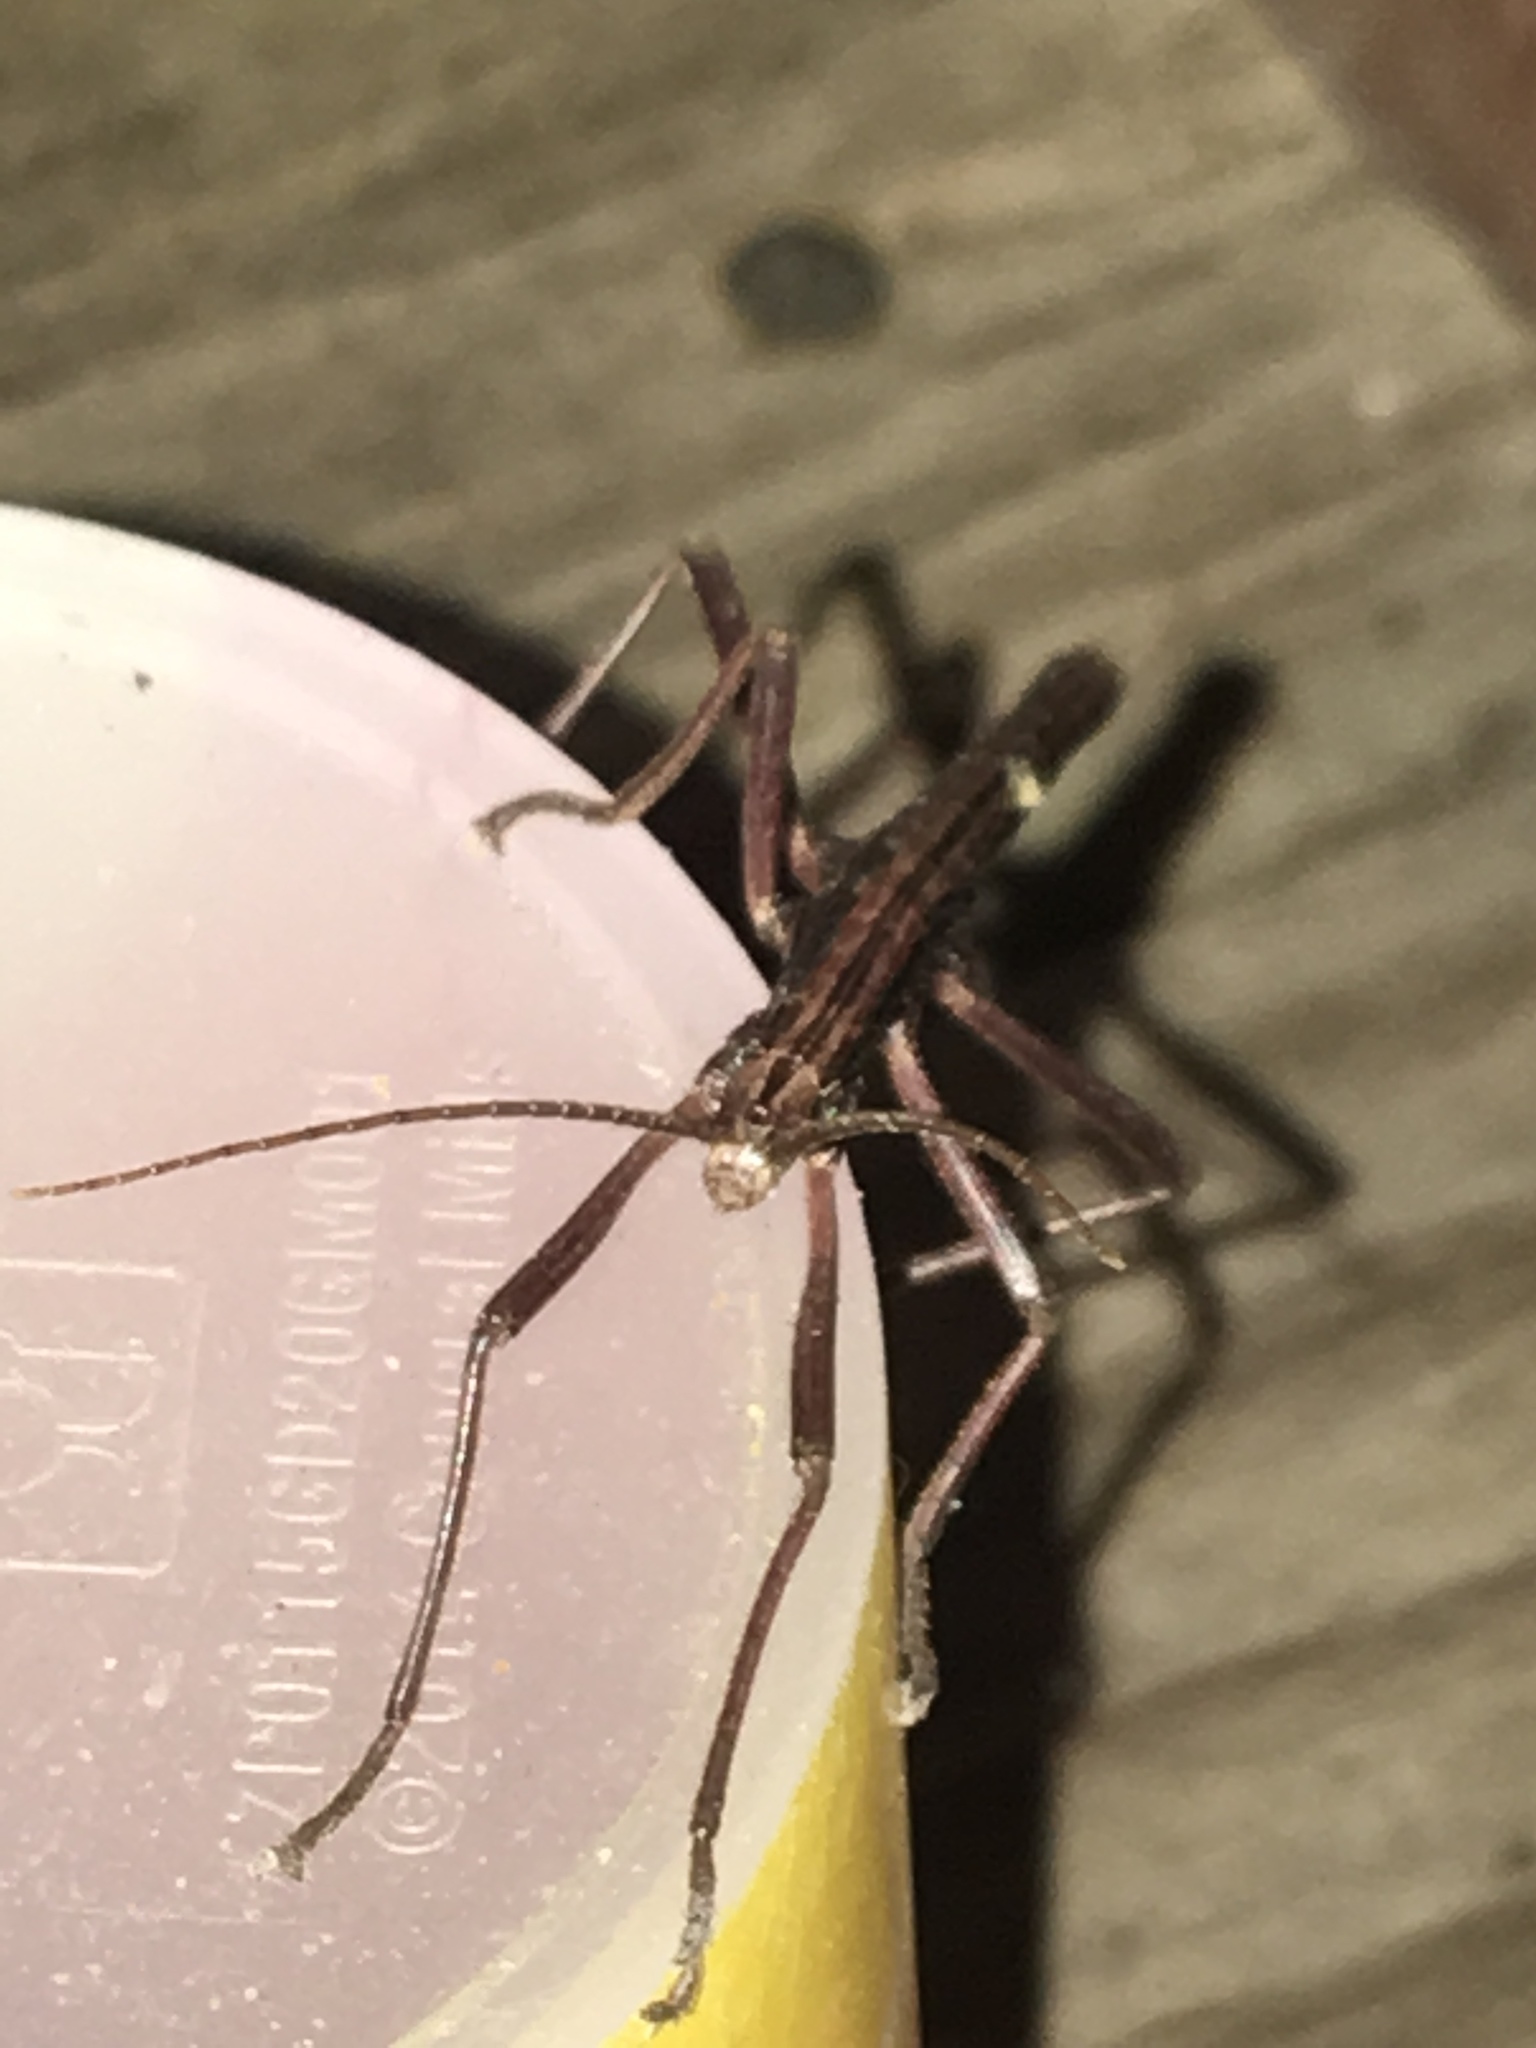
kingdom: Animalia
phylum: Arthropoda
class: Insecta
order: Phasmida
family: Pseudophasmatidae
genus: Anisomorpha
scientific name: Anisomorpha buprestoides
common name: Florida stick insect
